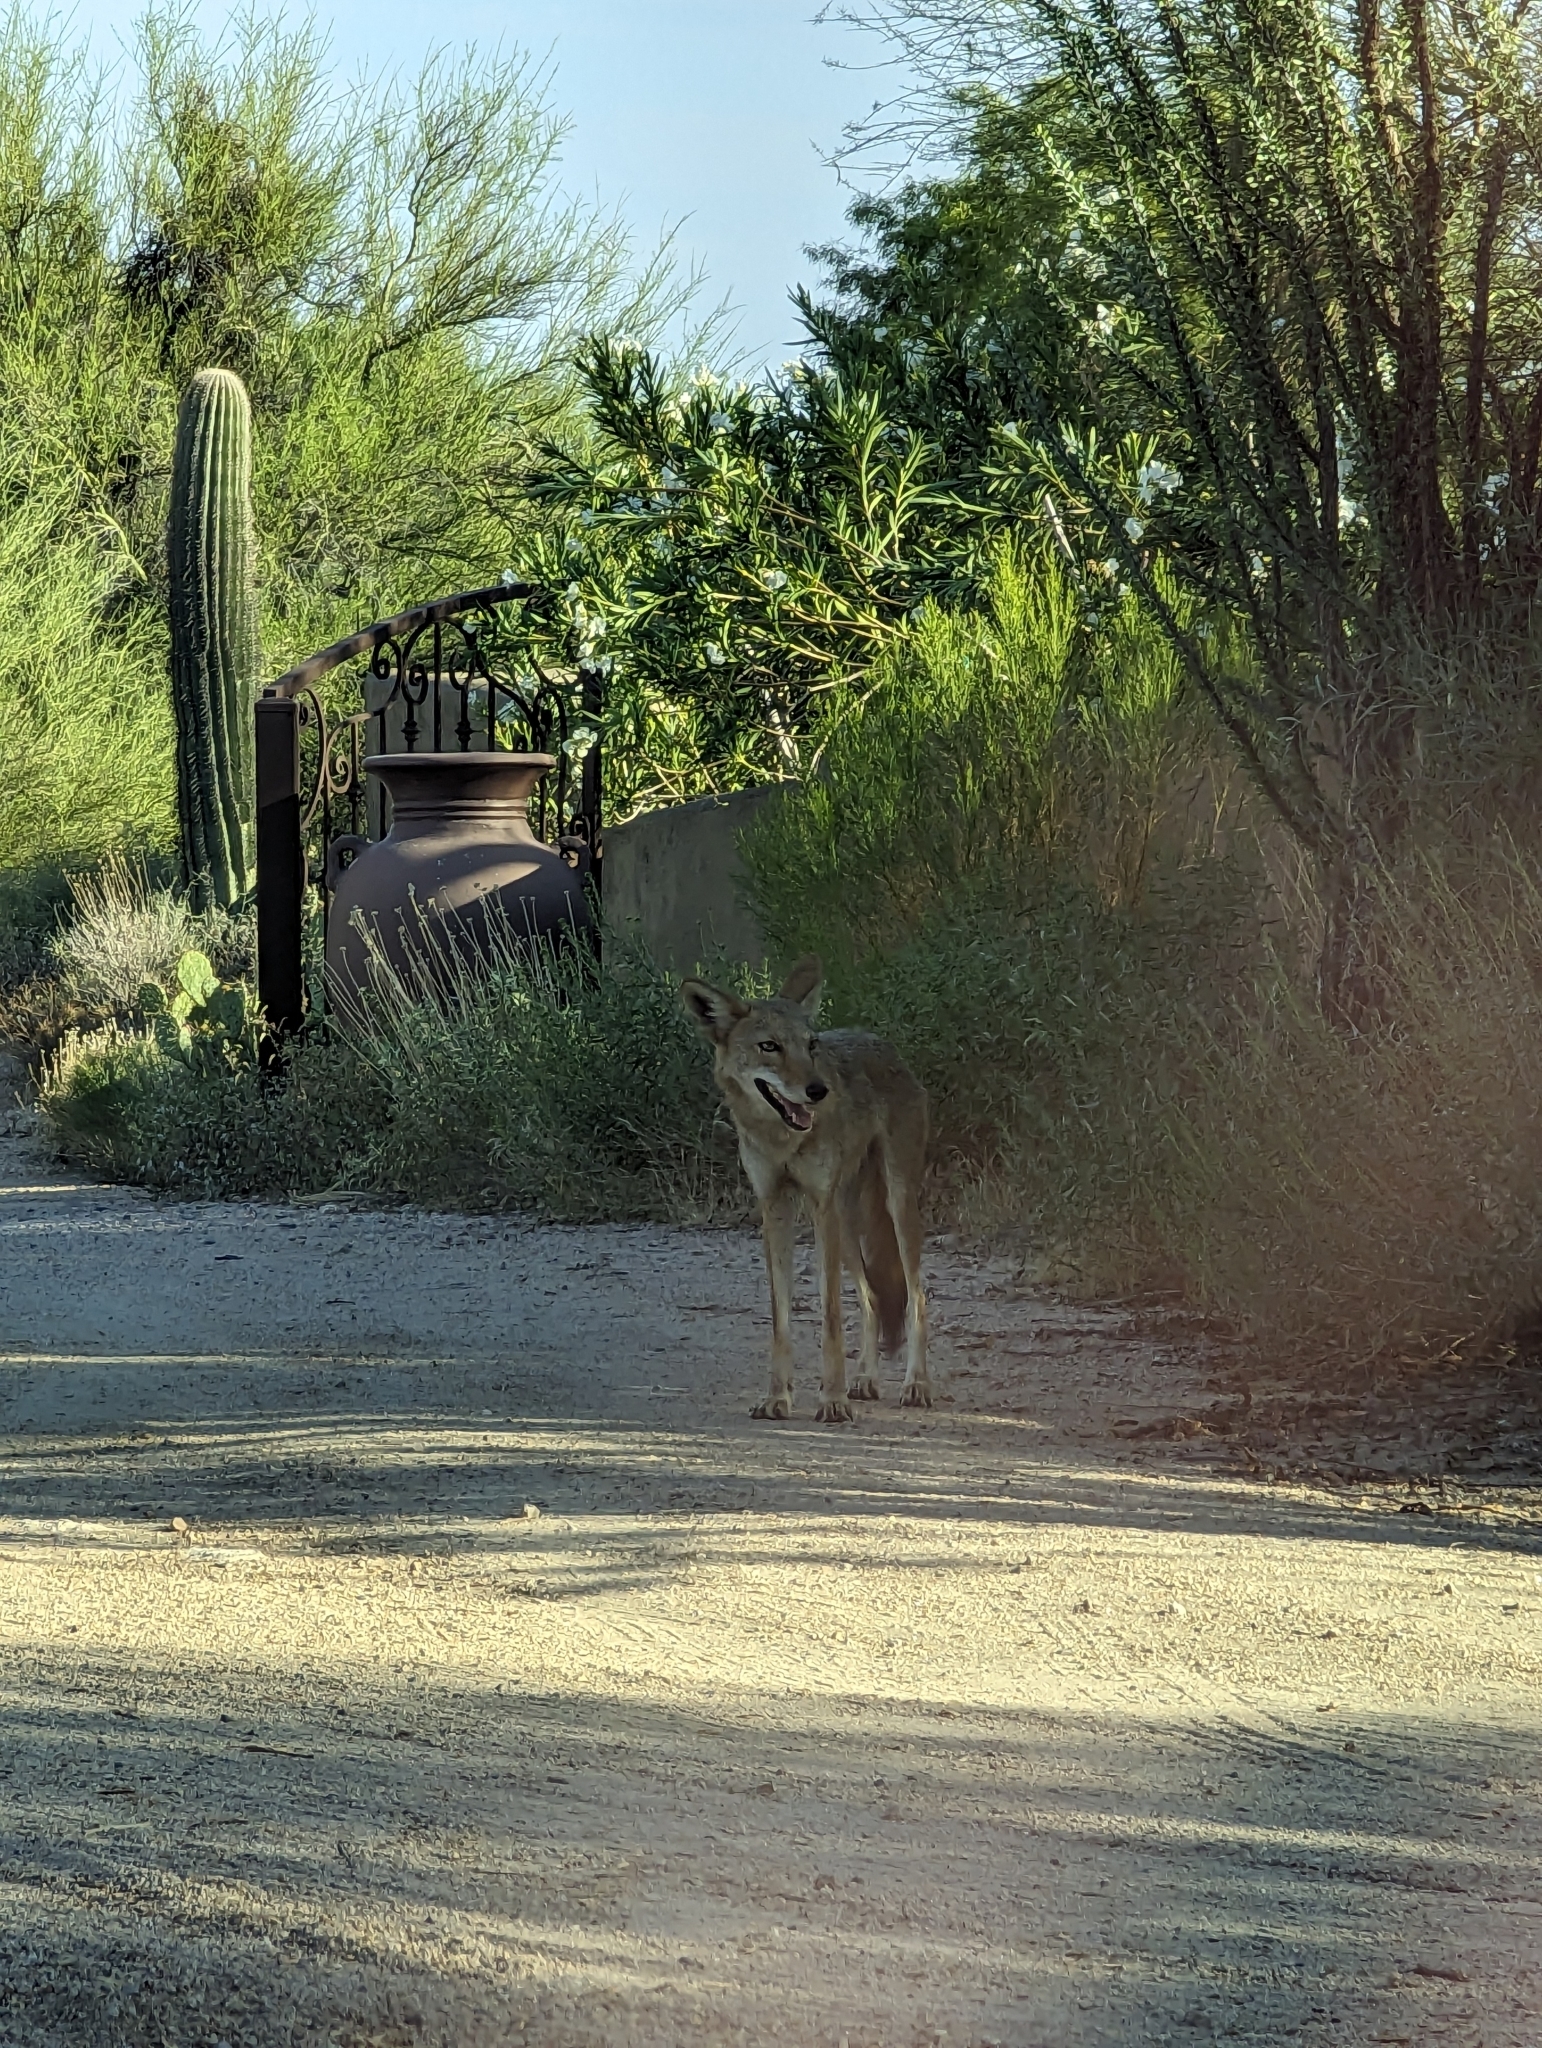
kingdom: Animalia
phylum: Chordata
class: Mammalia
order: Carnivora
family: Canidae
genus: Canis
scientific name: Canis latrans
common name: Coyote
